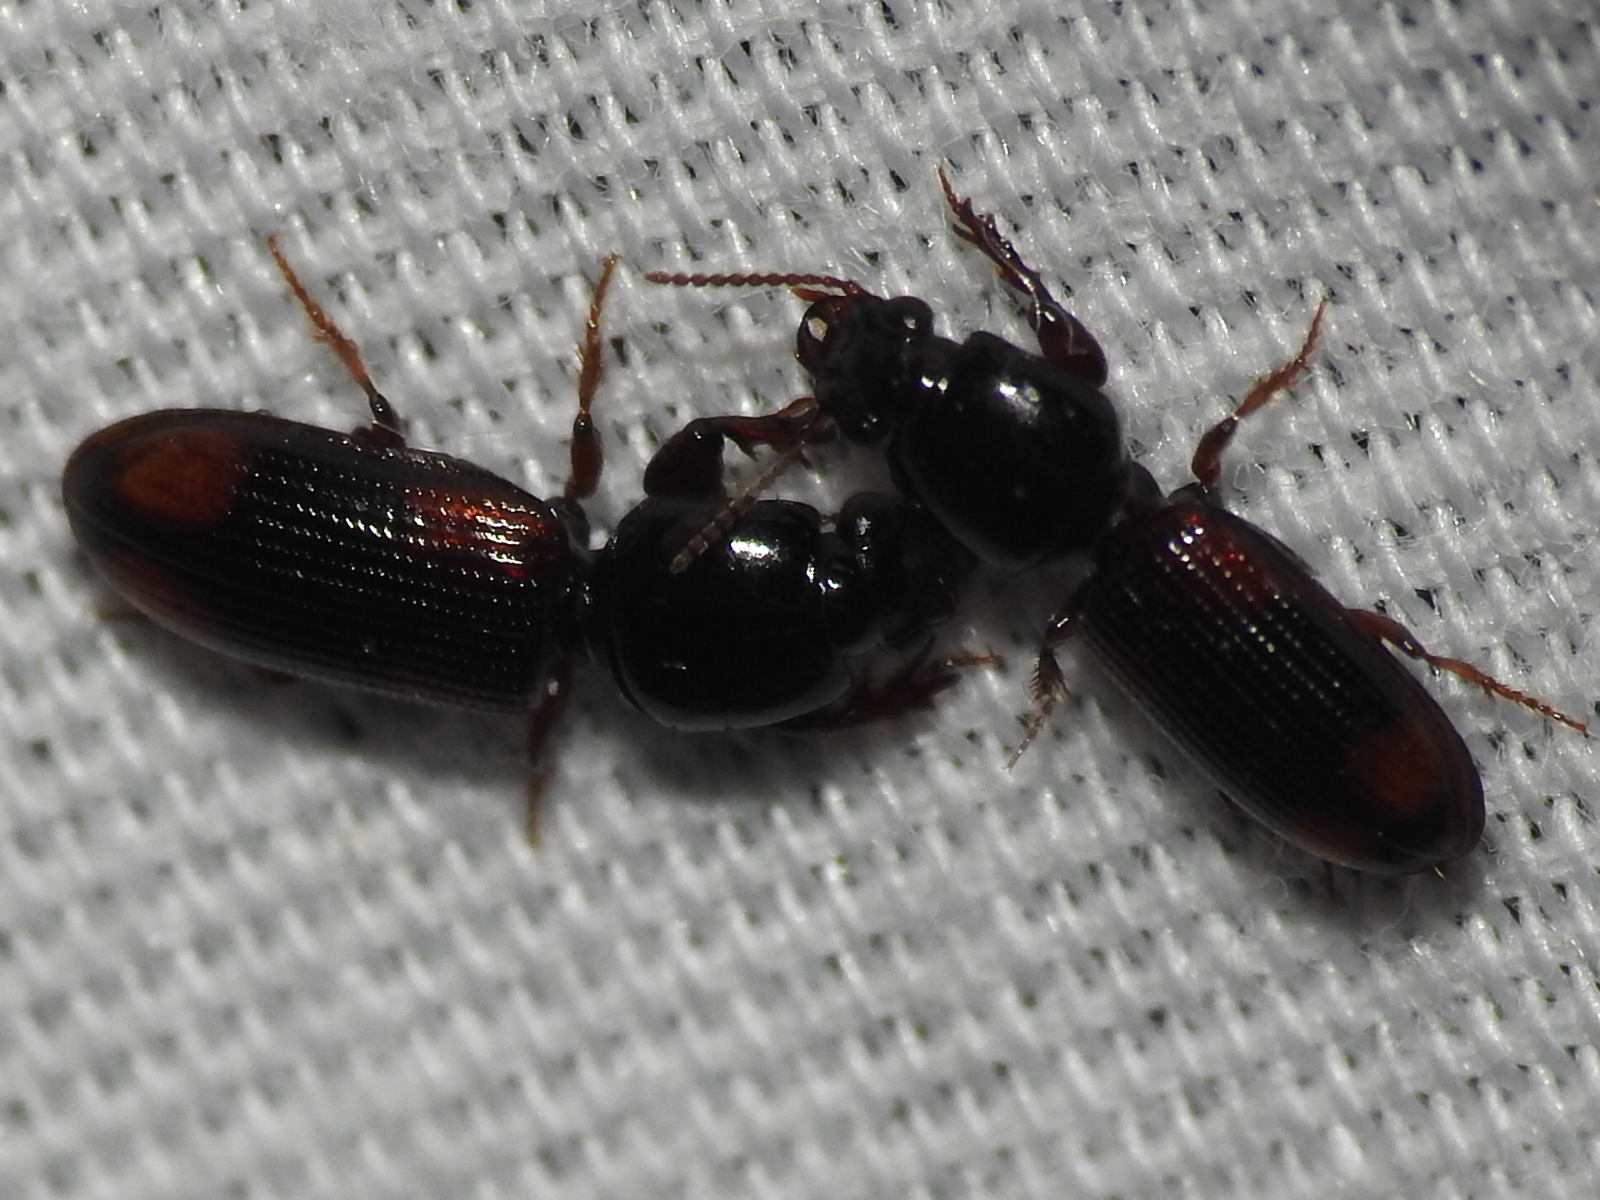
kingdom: Animalia
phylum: Arthropoda
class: Insecta
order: Coleoptera
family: Carabidae
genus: Clivina
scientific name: Clivina bipustulata
